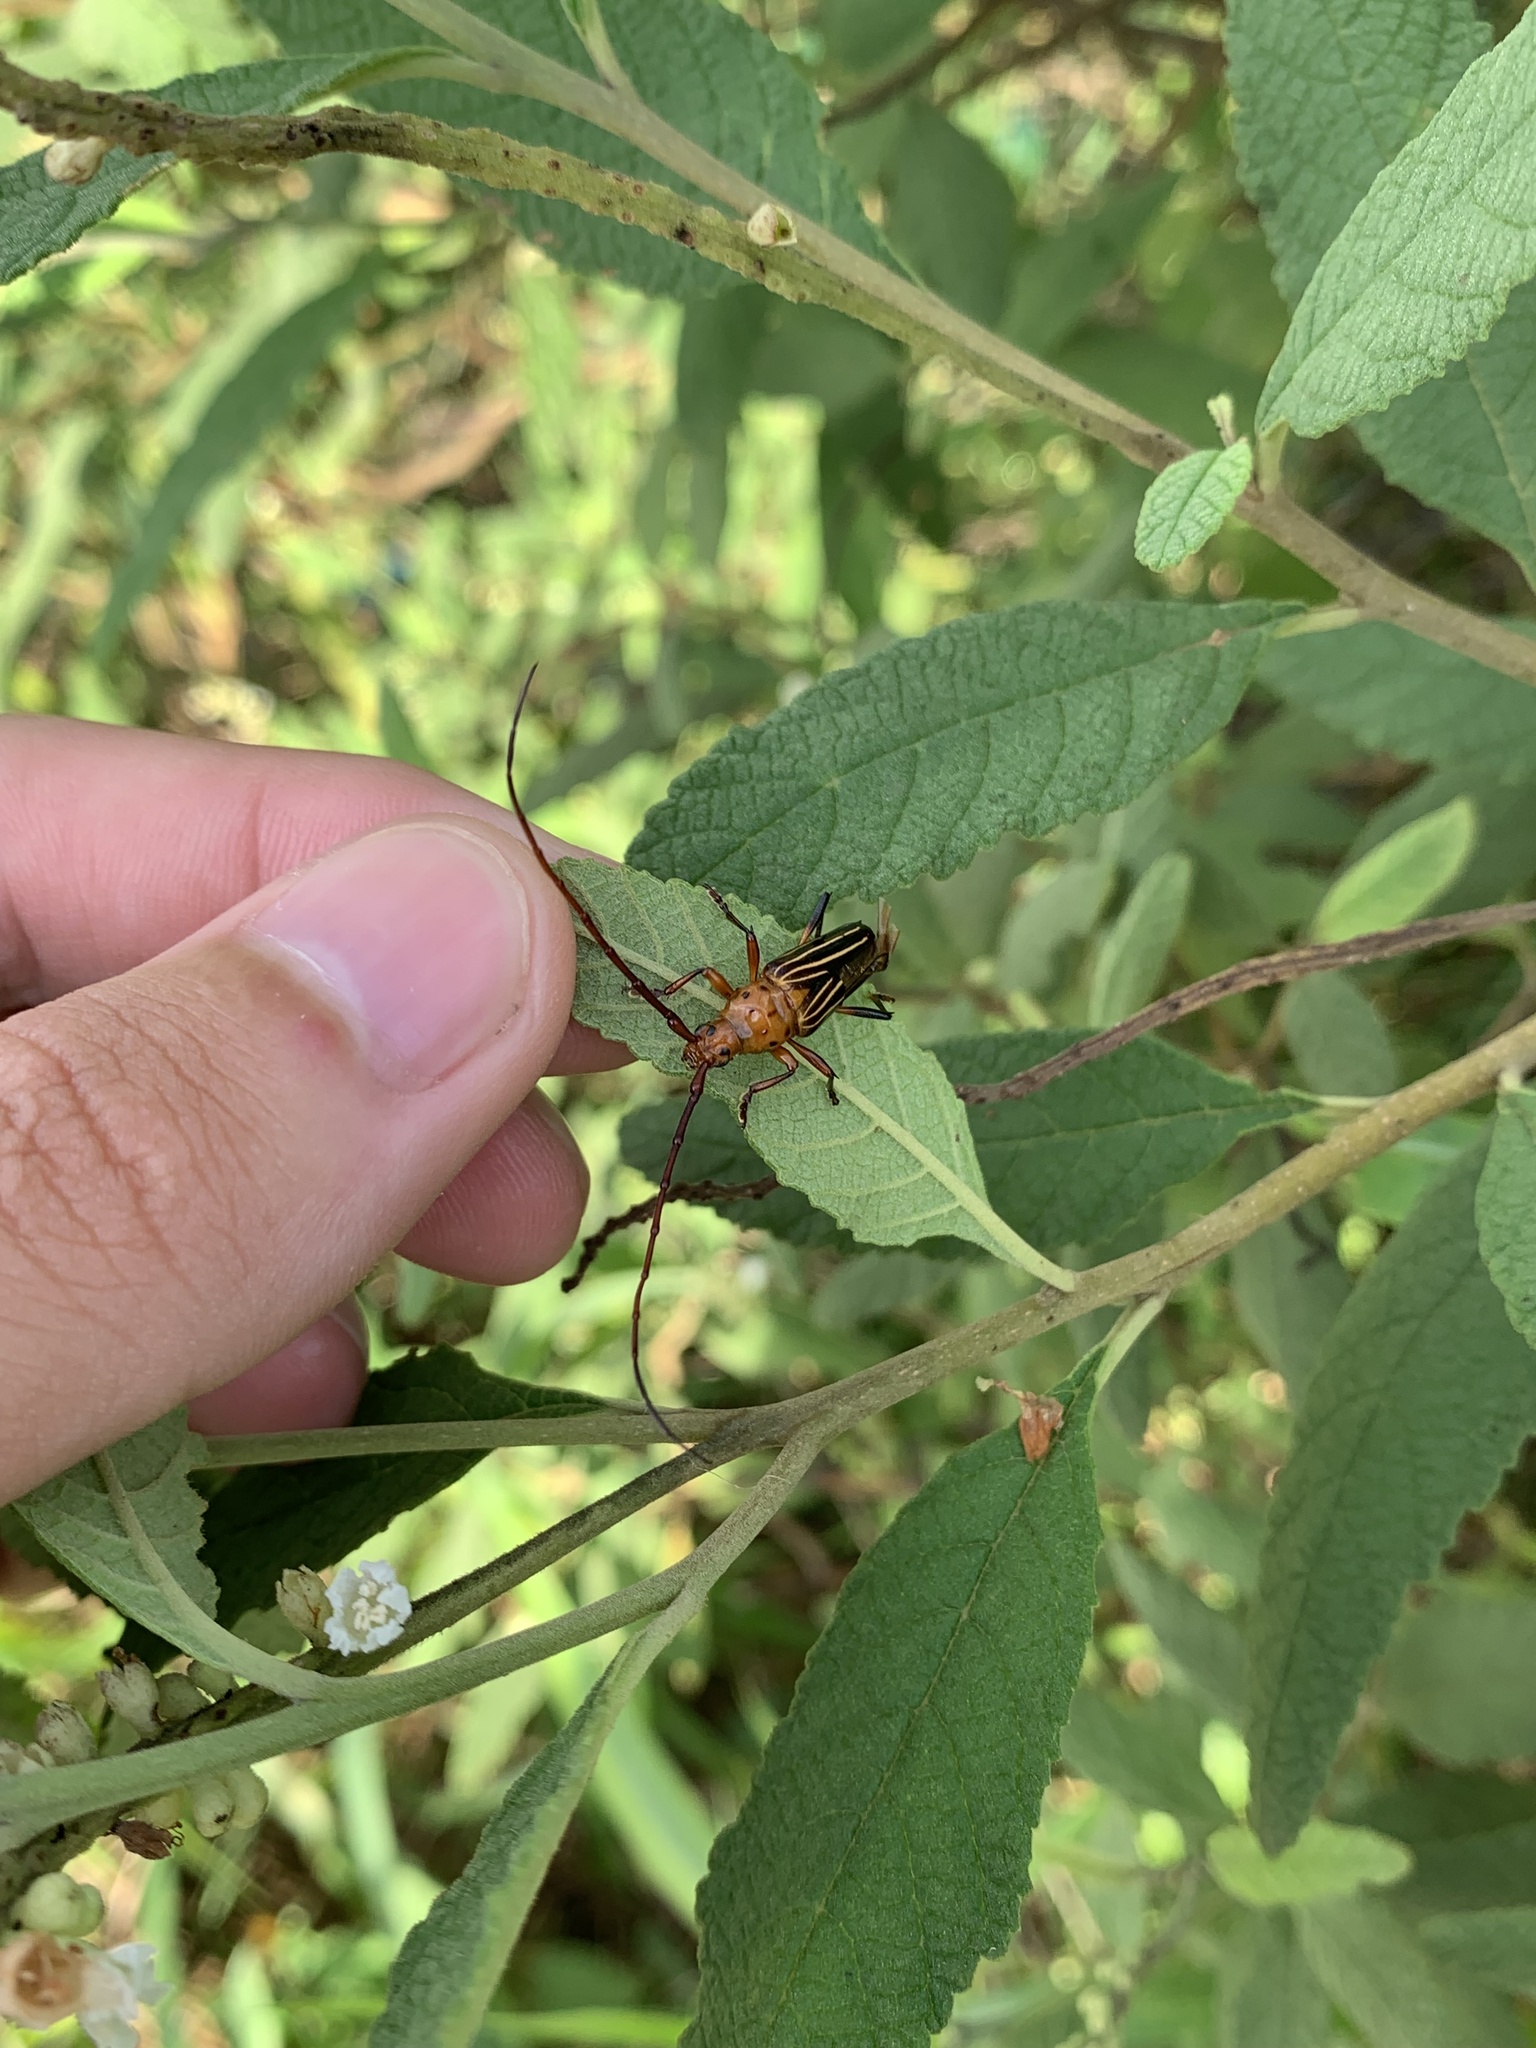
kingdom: Animalia
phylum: Arthropoda
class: Insecta
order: Coleoptera
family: Cerambycidae
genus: Oxymerus
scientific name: Oxymerus aculeatus
